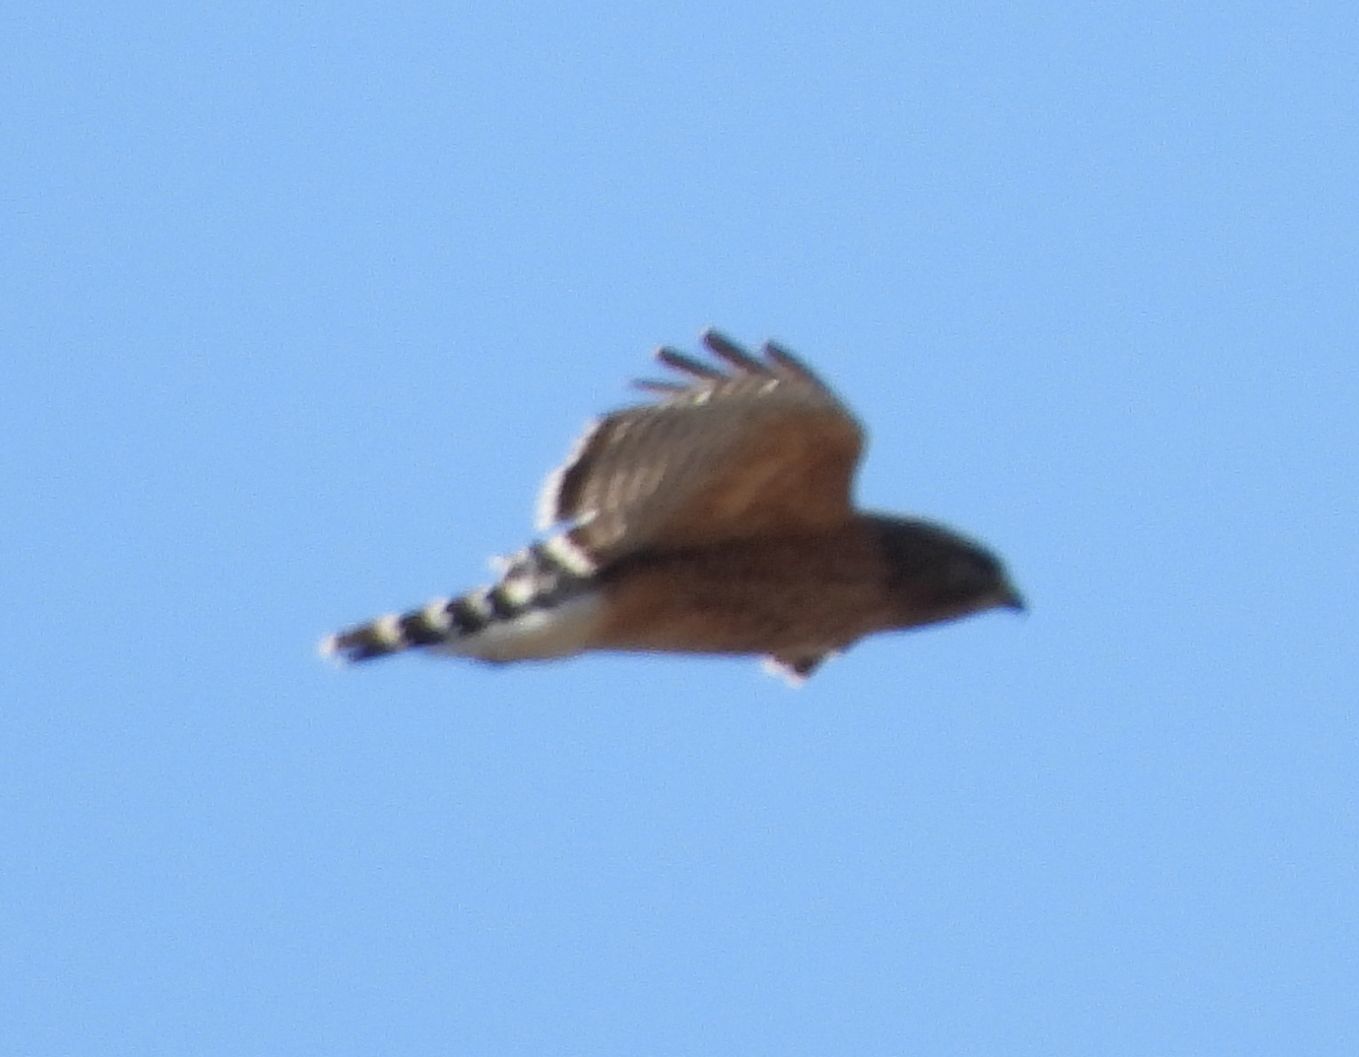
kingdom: Animalia
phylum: Chordata
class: Aves
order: Accipitriformes
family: Accipitridae
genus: Buteo
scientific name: Buteo lineatus
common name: Red-shouldered hawk
